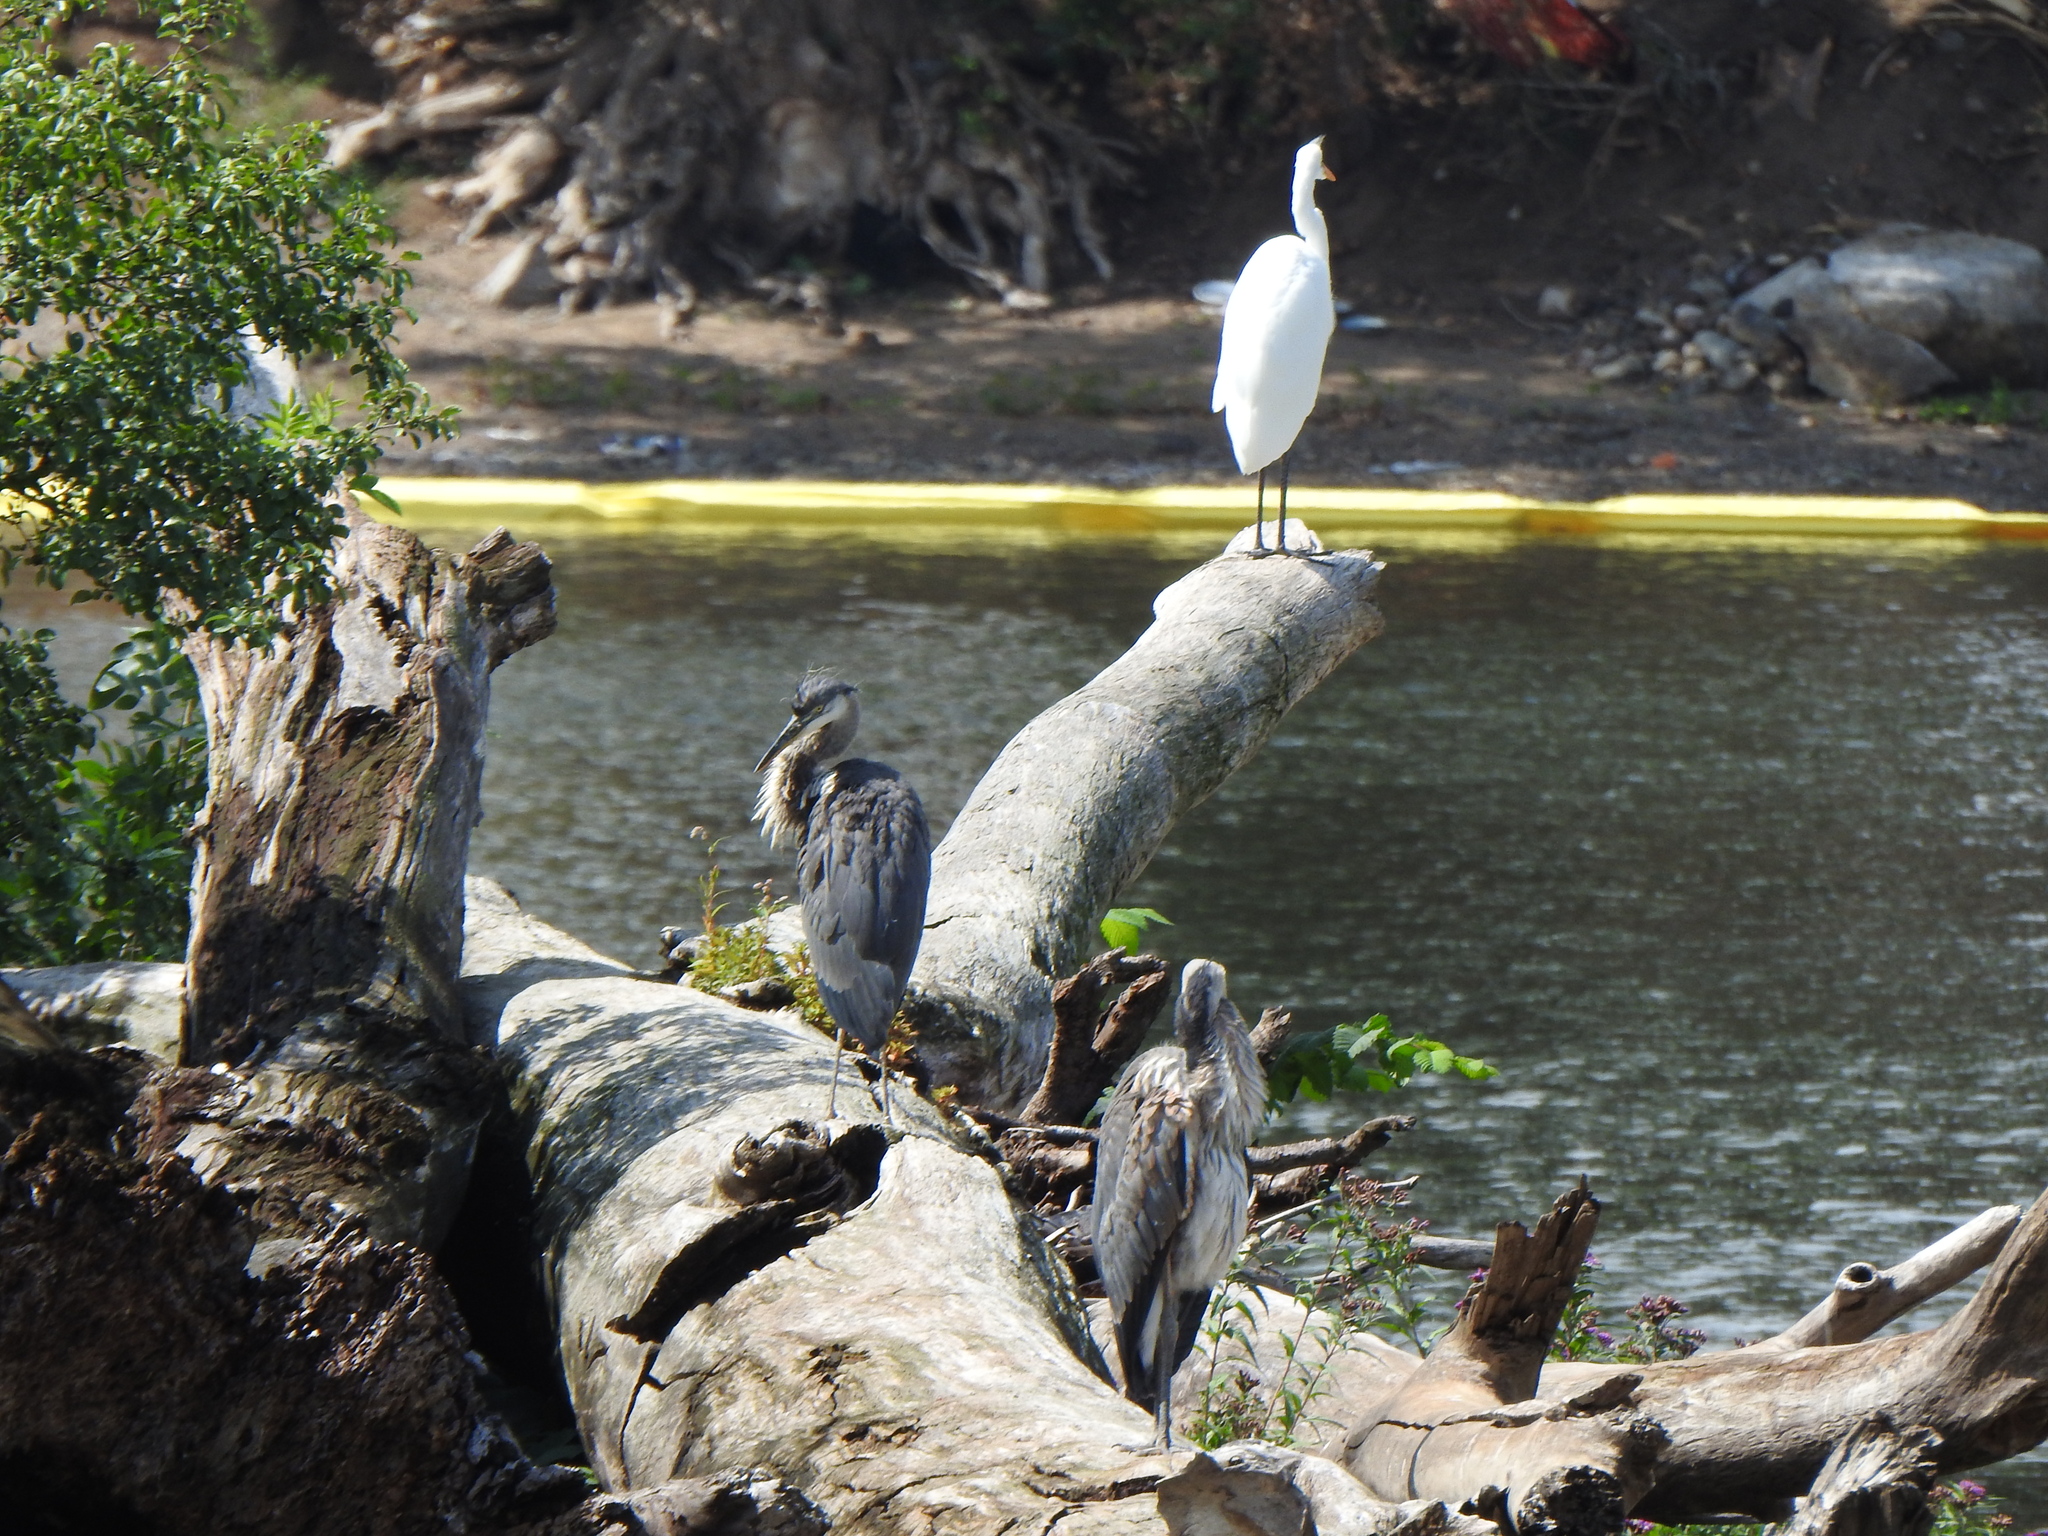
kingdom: Animalia
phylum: Chordata
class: Aves
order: Pelecaniformes
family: Ardeidae
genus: Ardea
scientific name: Ardea herodias
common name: Great blue heron
